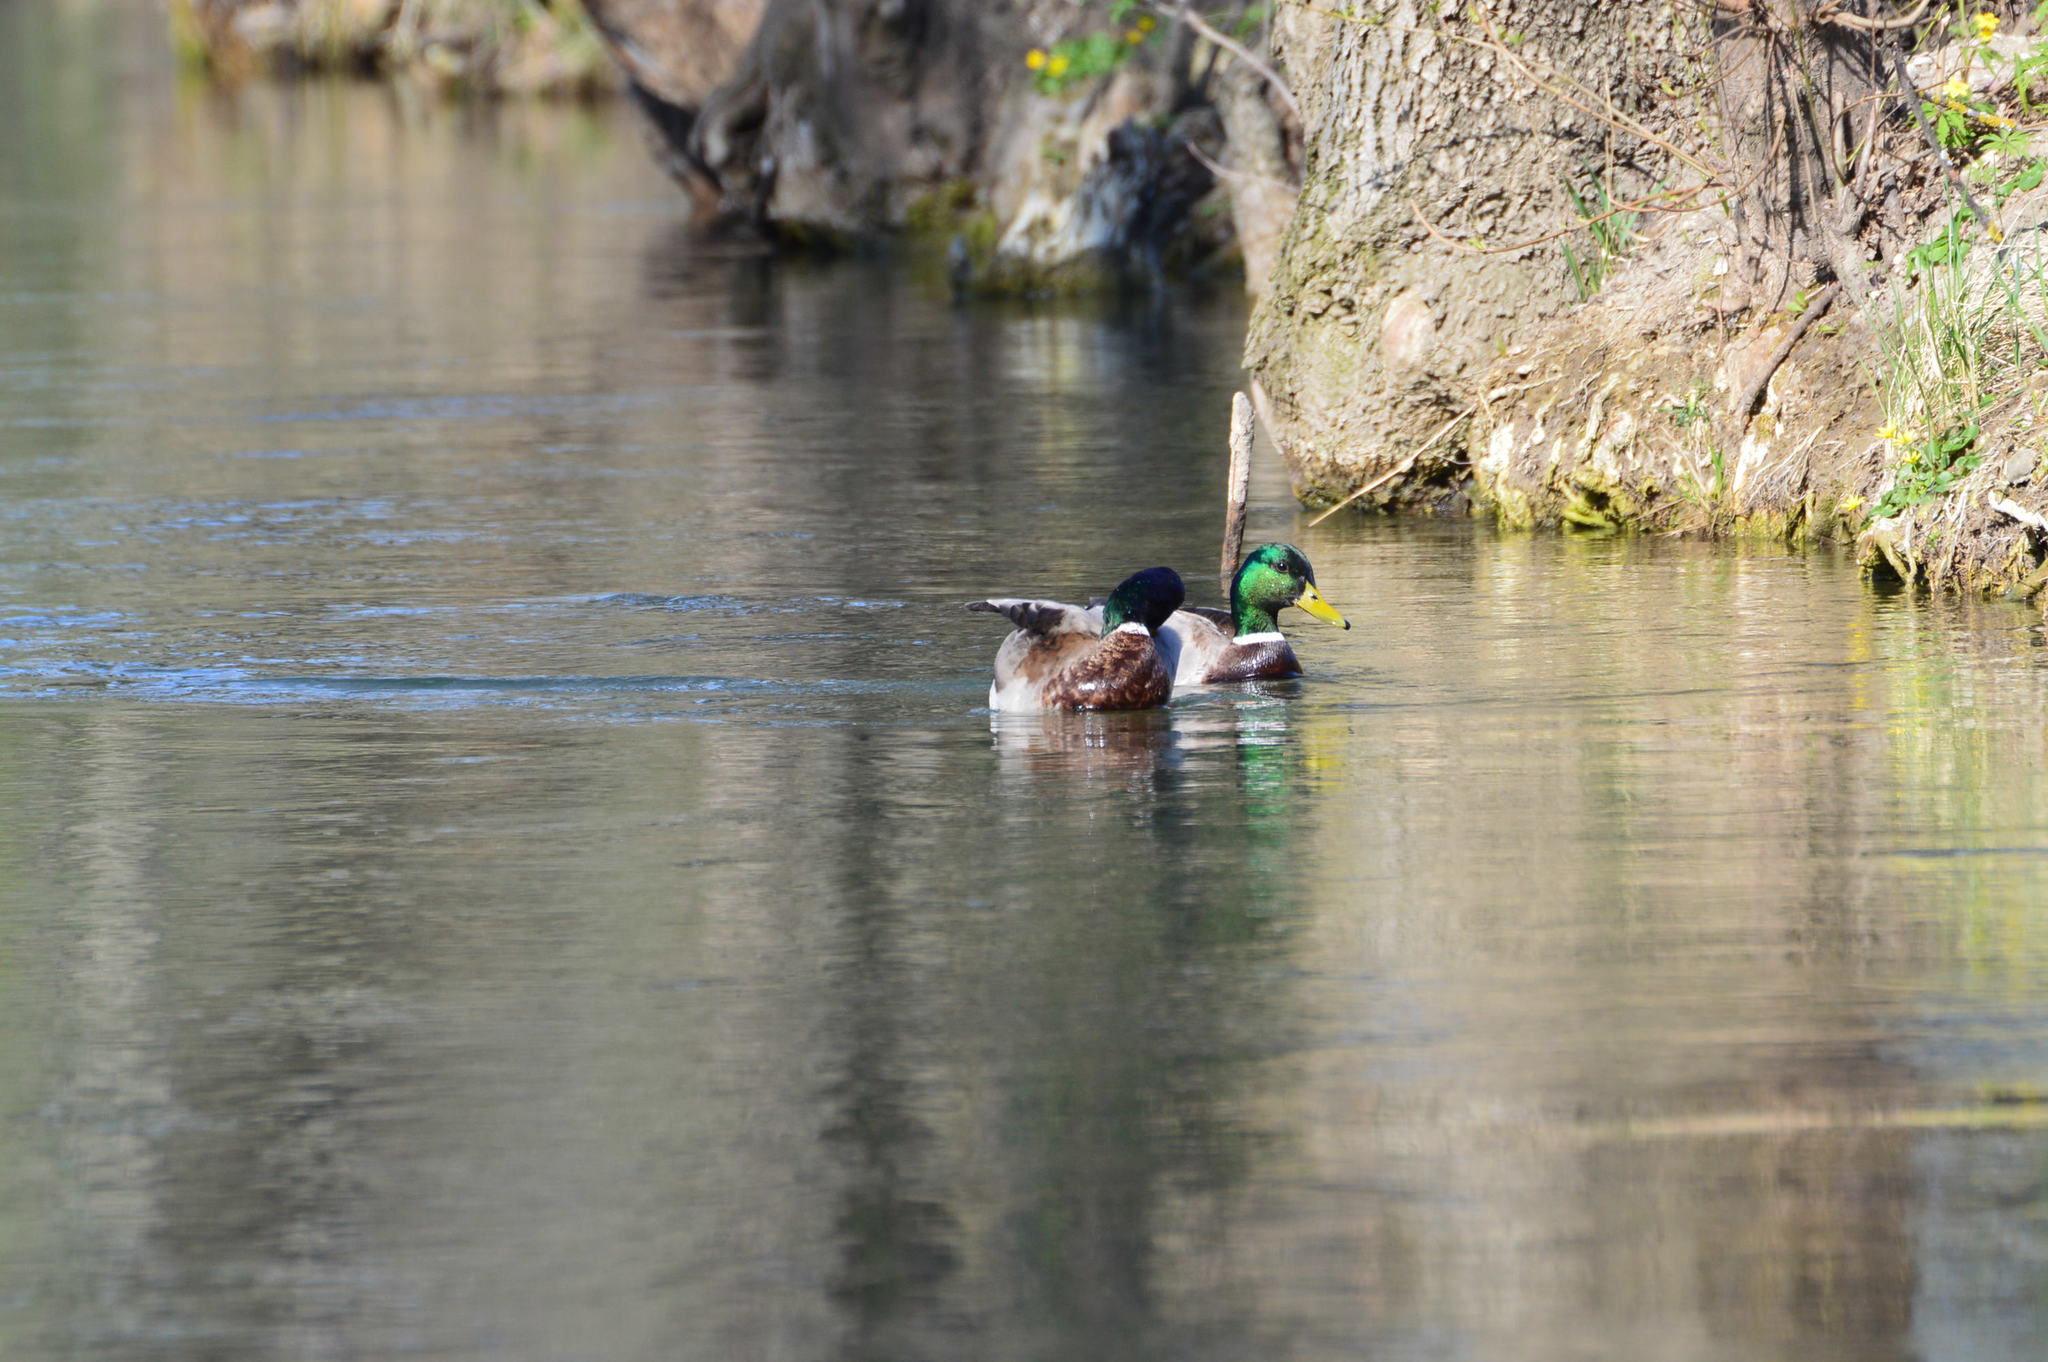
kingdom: Animalia
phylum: Chordata
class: Aves
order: Anseriformes
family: Anatidae
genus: Anas
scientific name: Anas platyrhynchos
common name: Mallard
